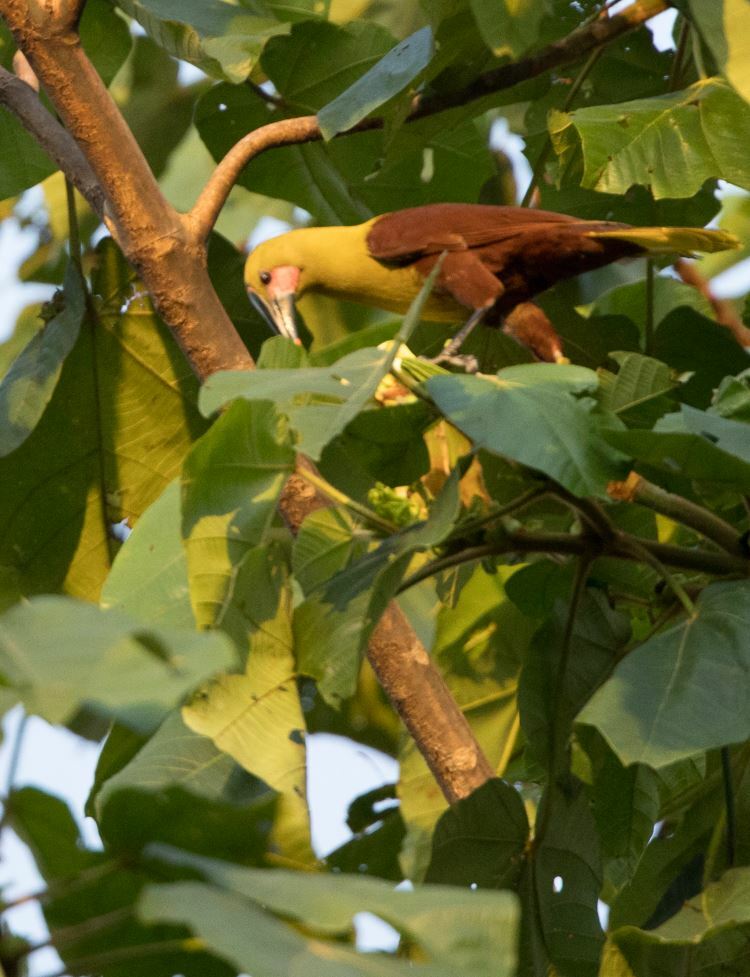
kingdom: Animalia
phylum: Chordata
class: Aves
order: Passeriformes
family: Icteridae
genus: Psarocolius
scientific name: Psarocolius bifasciatus
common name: Olive oropendola
